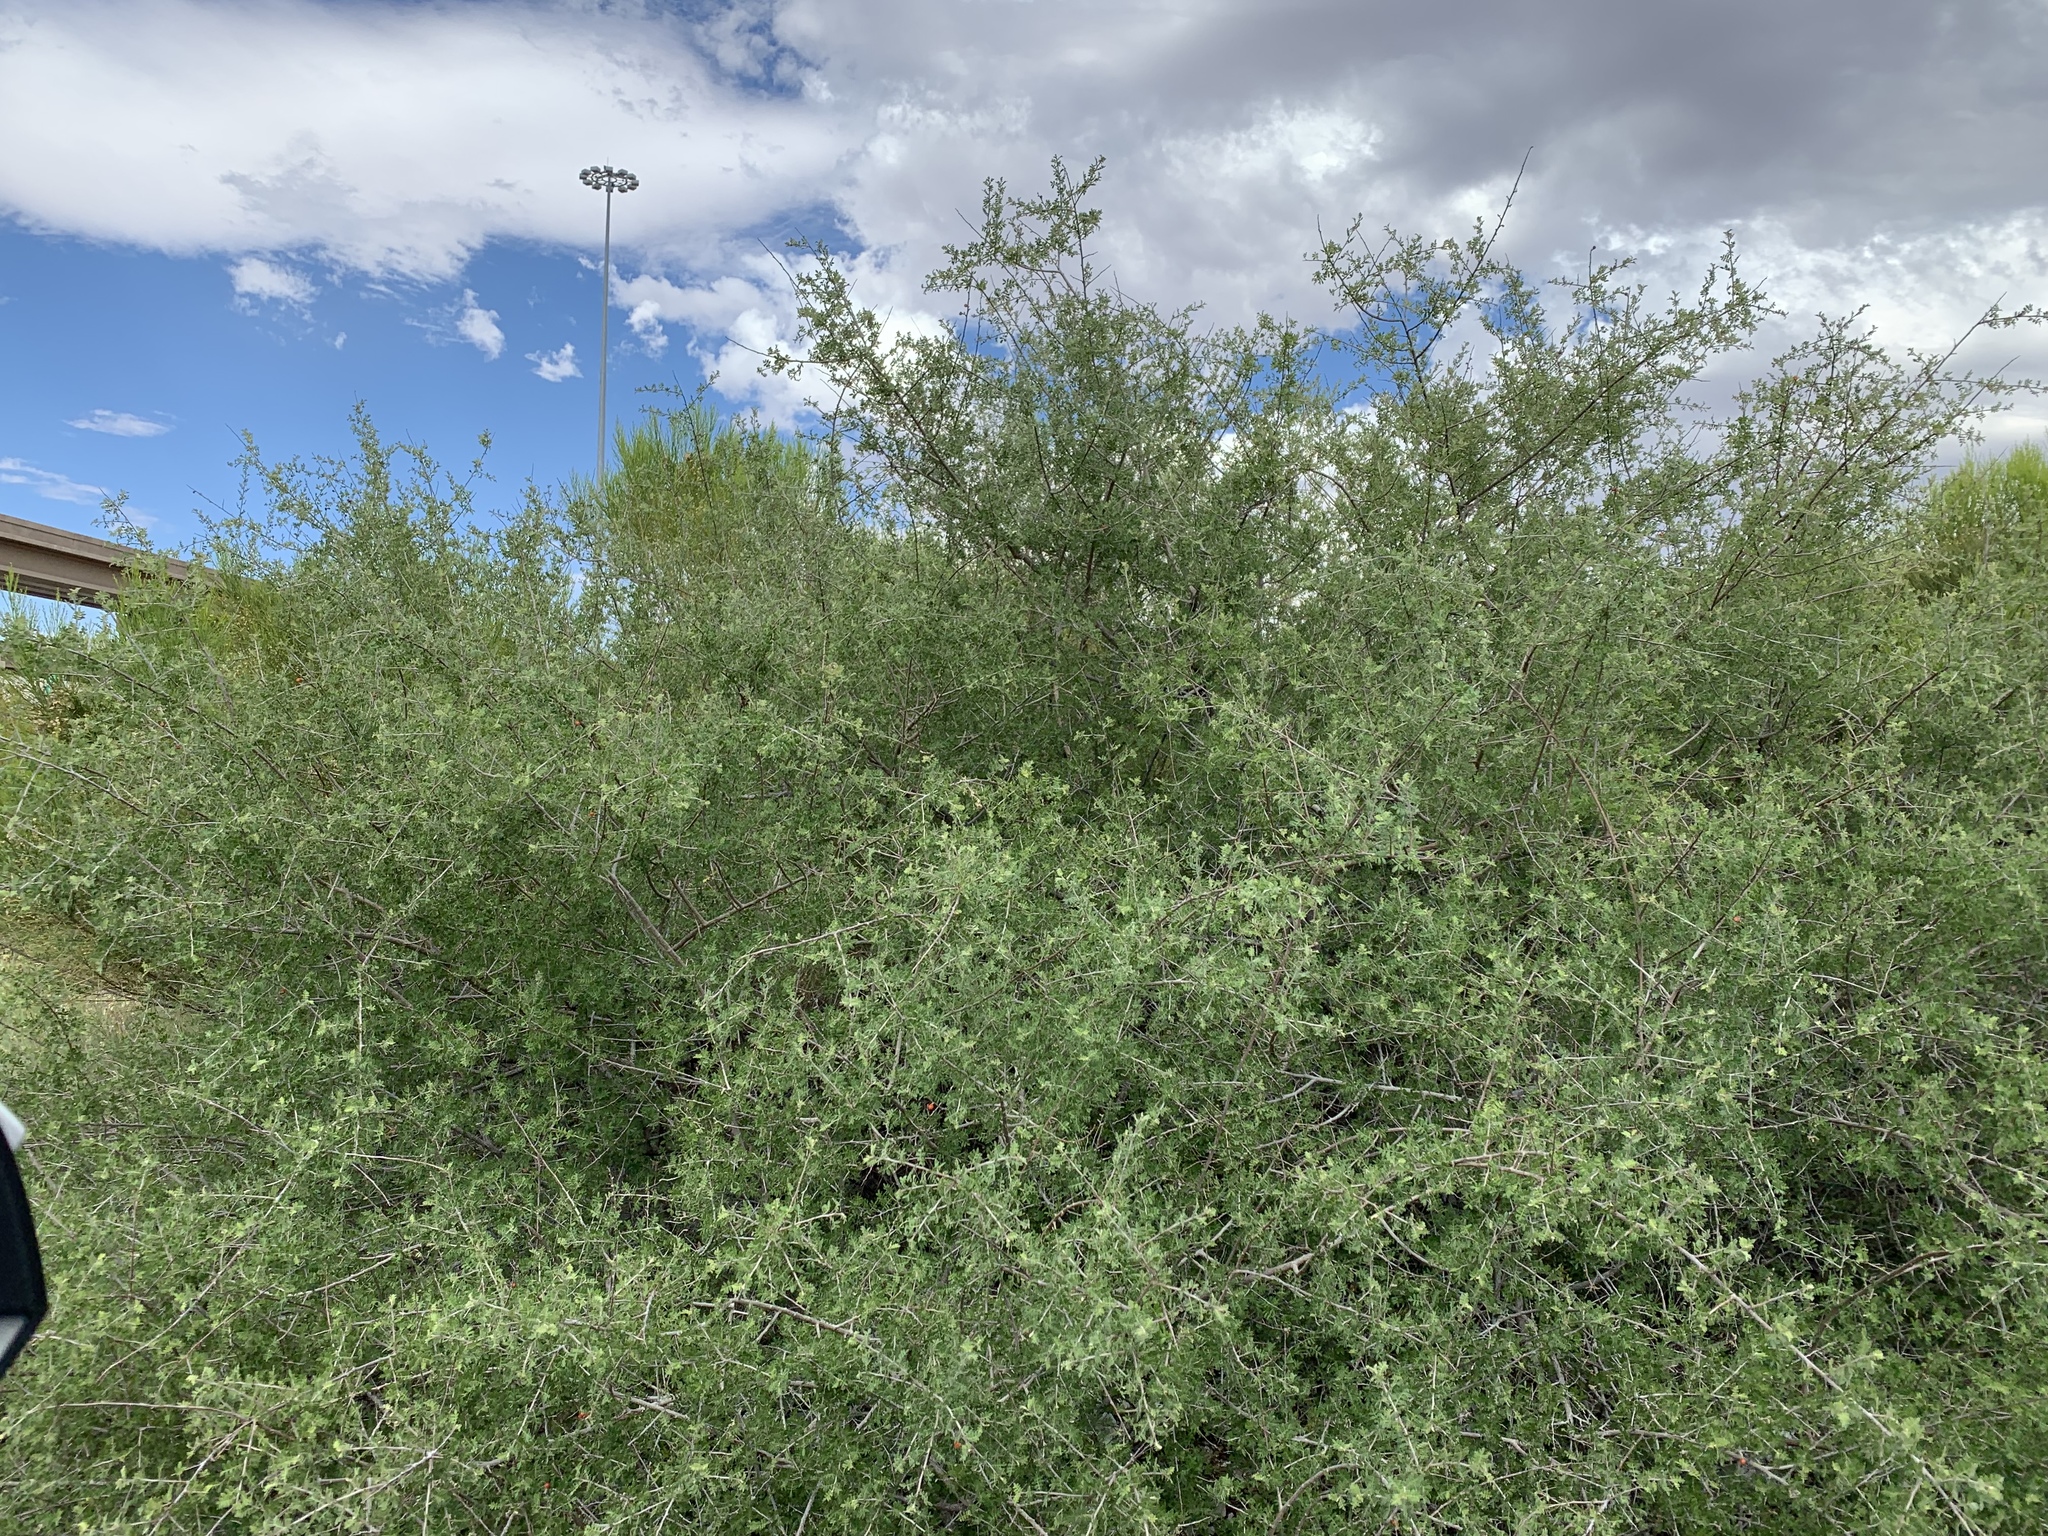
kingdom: Plantae
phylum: Tracheophyta
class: Magnoliopsida
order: Sapindales
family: Anacardiaceae
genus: Rhus
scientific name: Rhus microphylla
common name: Desert sumac
